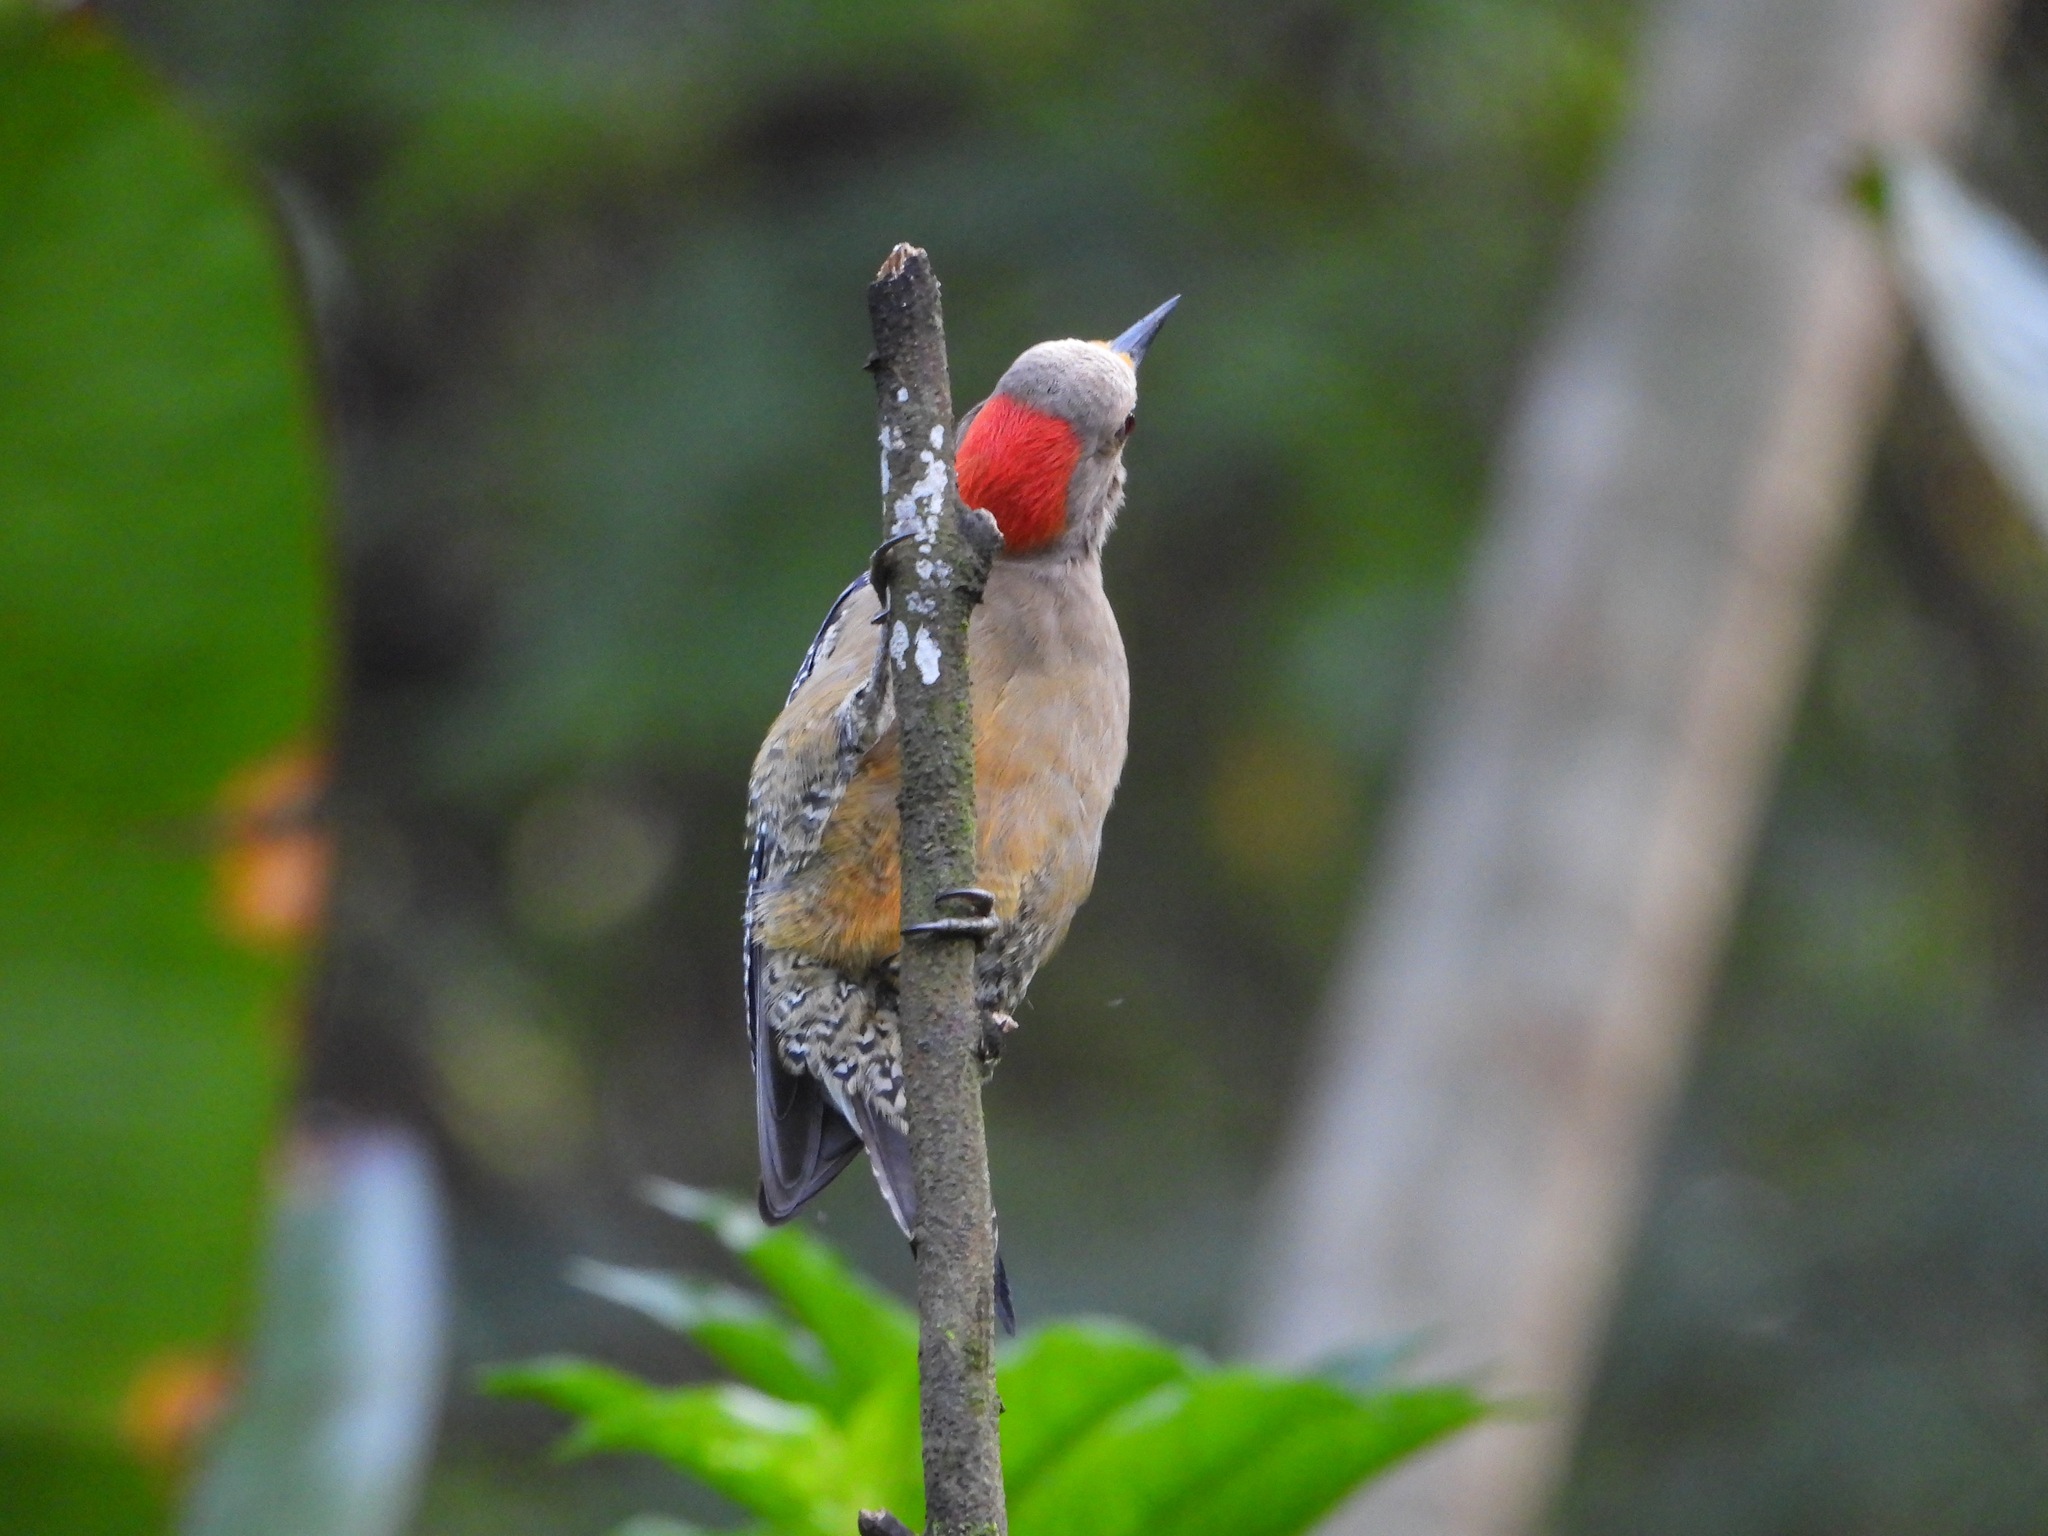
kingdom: Animalia
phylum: Chordata
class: Aves
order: Piciformes
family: Picidae
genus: Melanerpes
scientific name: Melanerpes aurifrons
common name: Golden-fronted woodpecker
